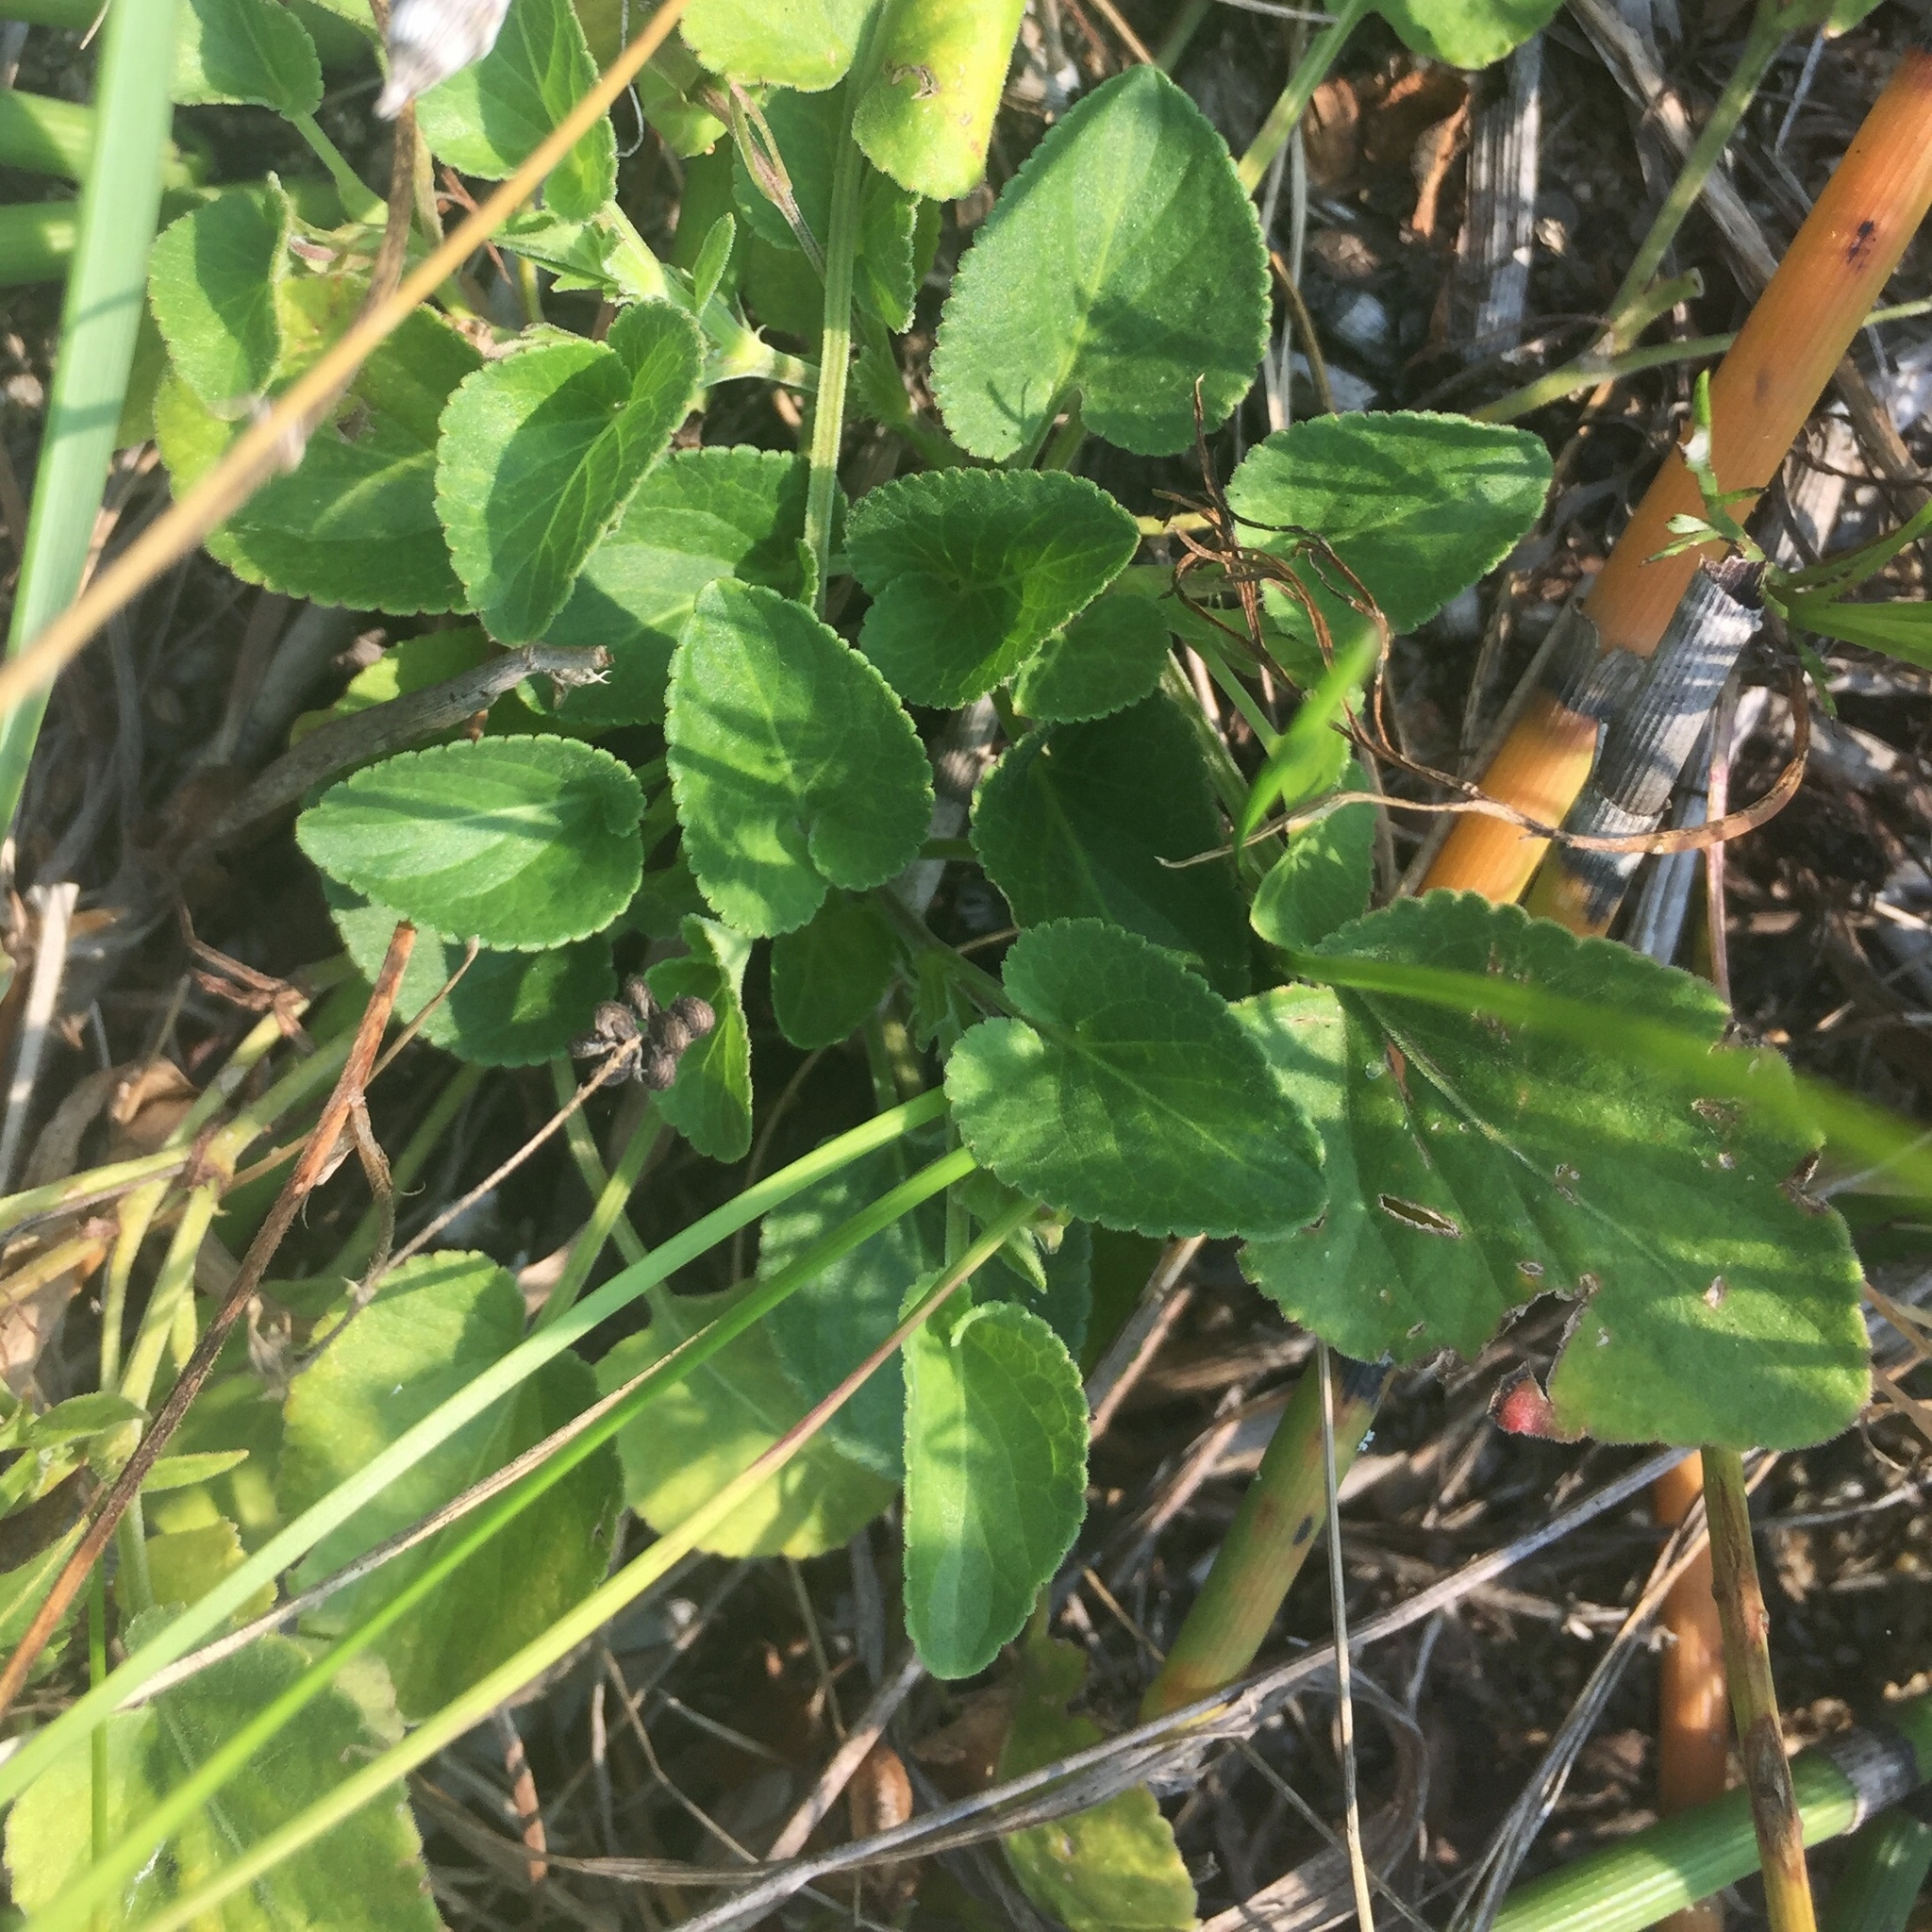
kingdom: Plantae
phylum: Tracheophyta
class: Magnoliopsida
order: Malpighiales
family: Violaceae
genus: Viola
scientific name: Viola adunca
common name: Sand violet
